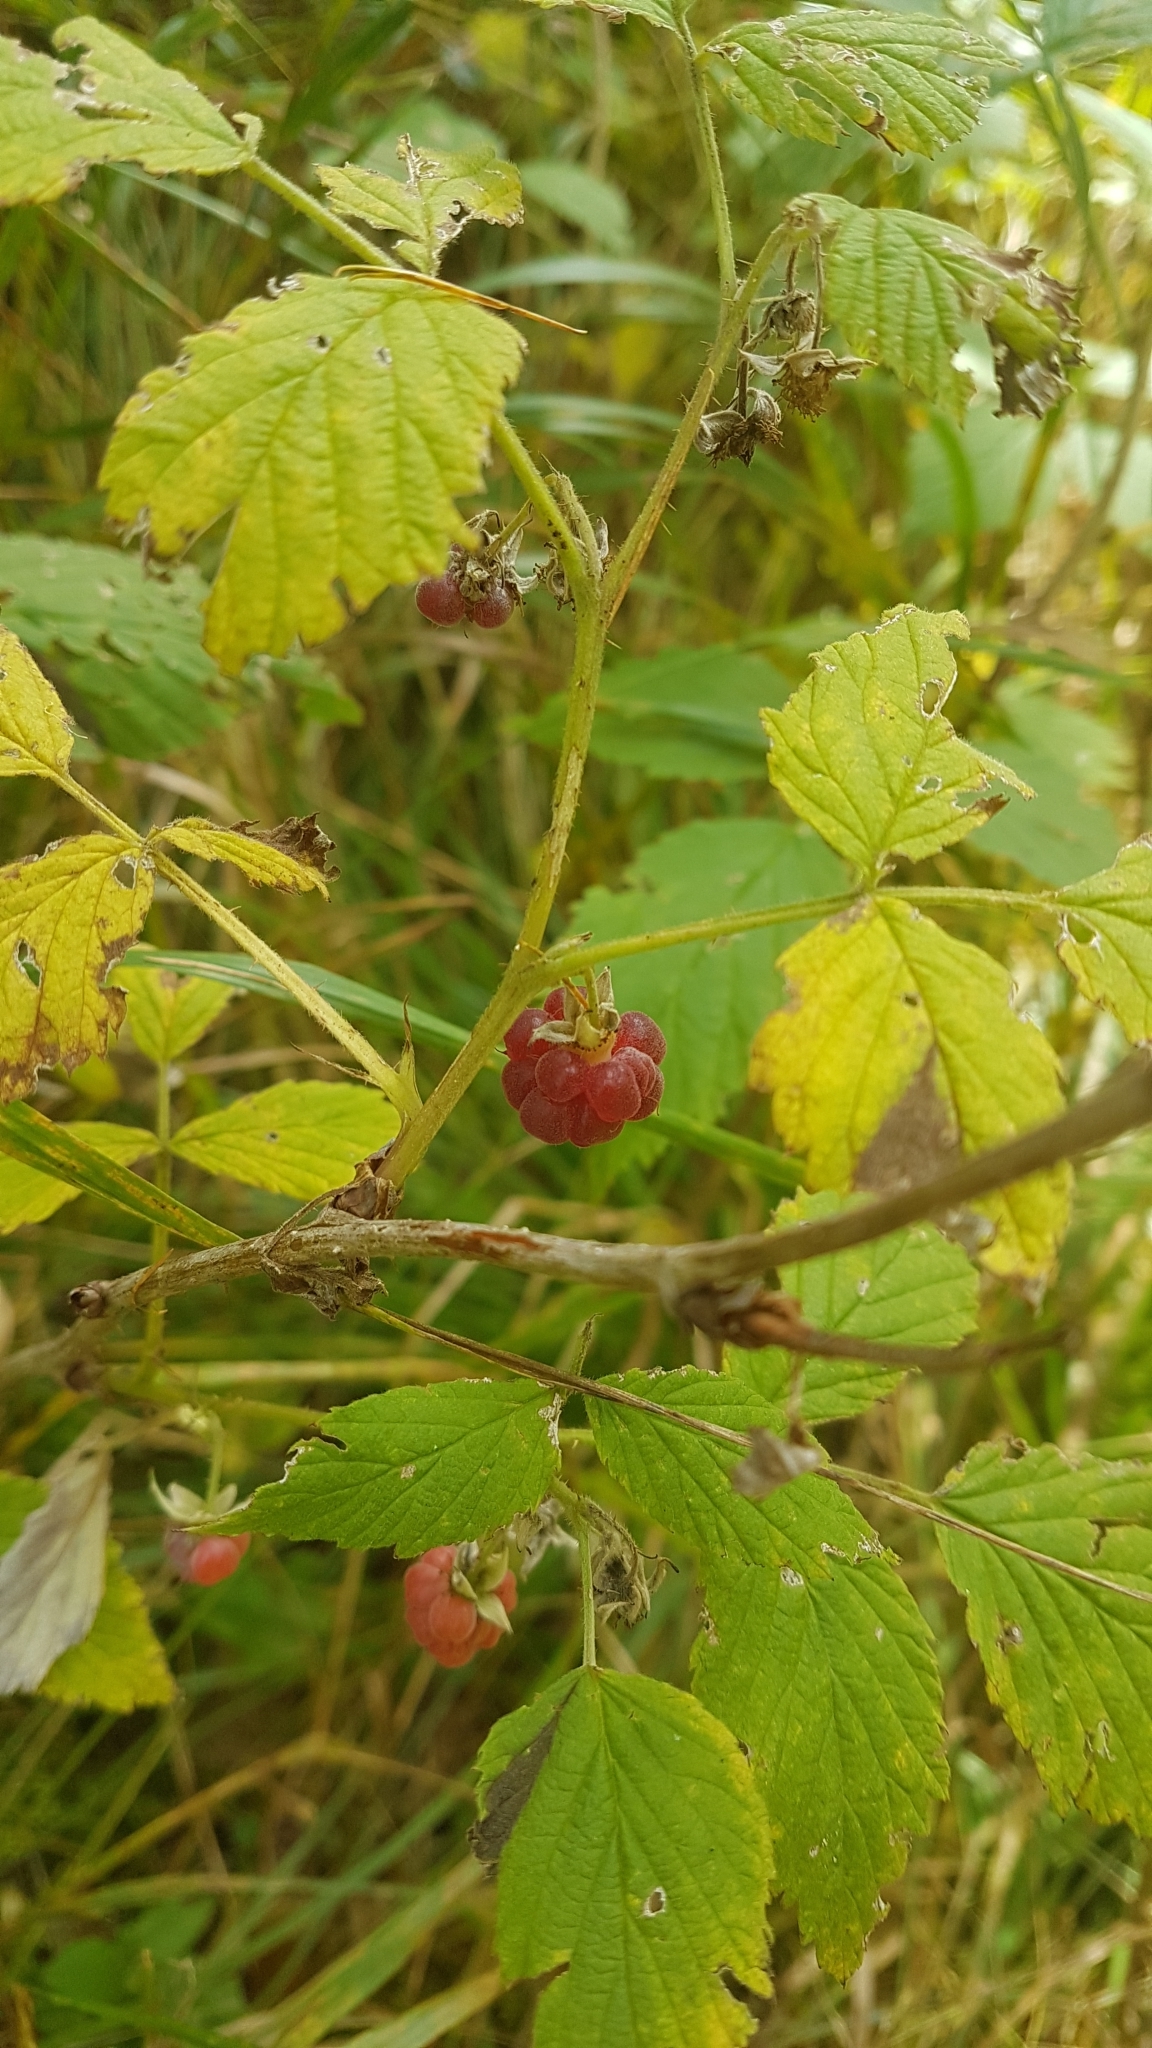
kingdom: Plantae
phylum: Tracheophyta
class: Magnoliopsida
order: Rosales
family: Rosaceae
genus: Rubus
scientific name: Rubus idaeus
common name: Raspberry
